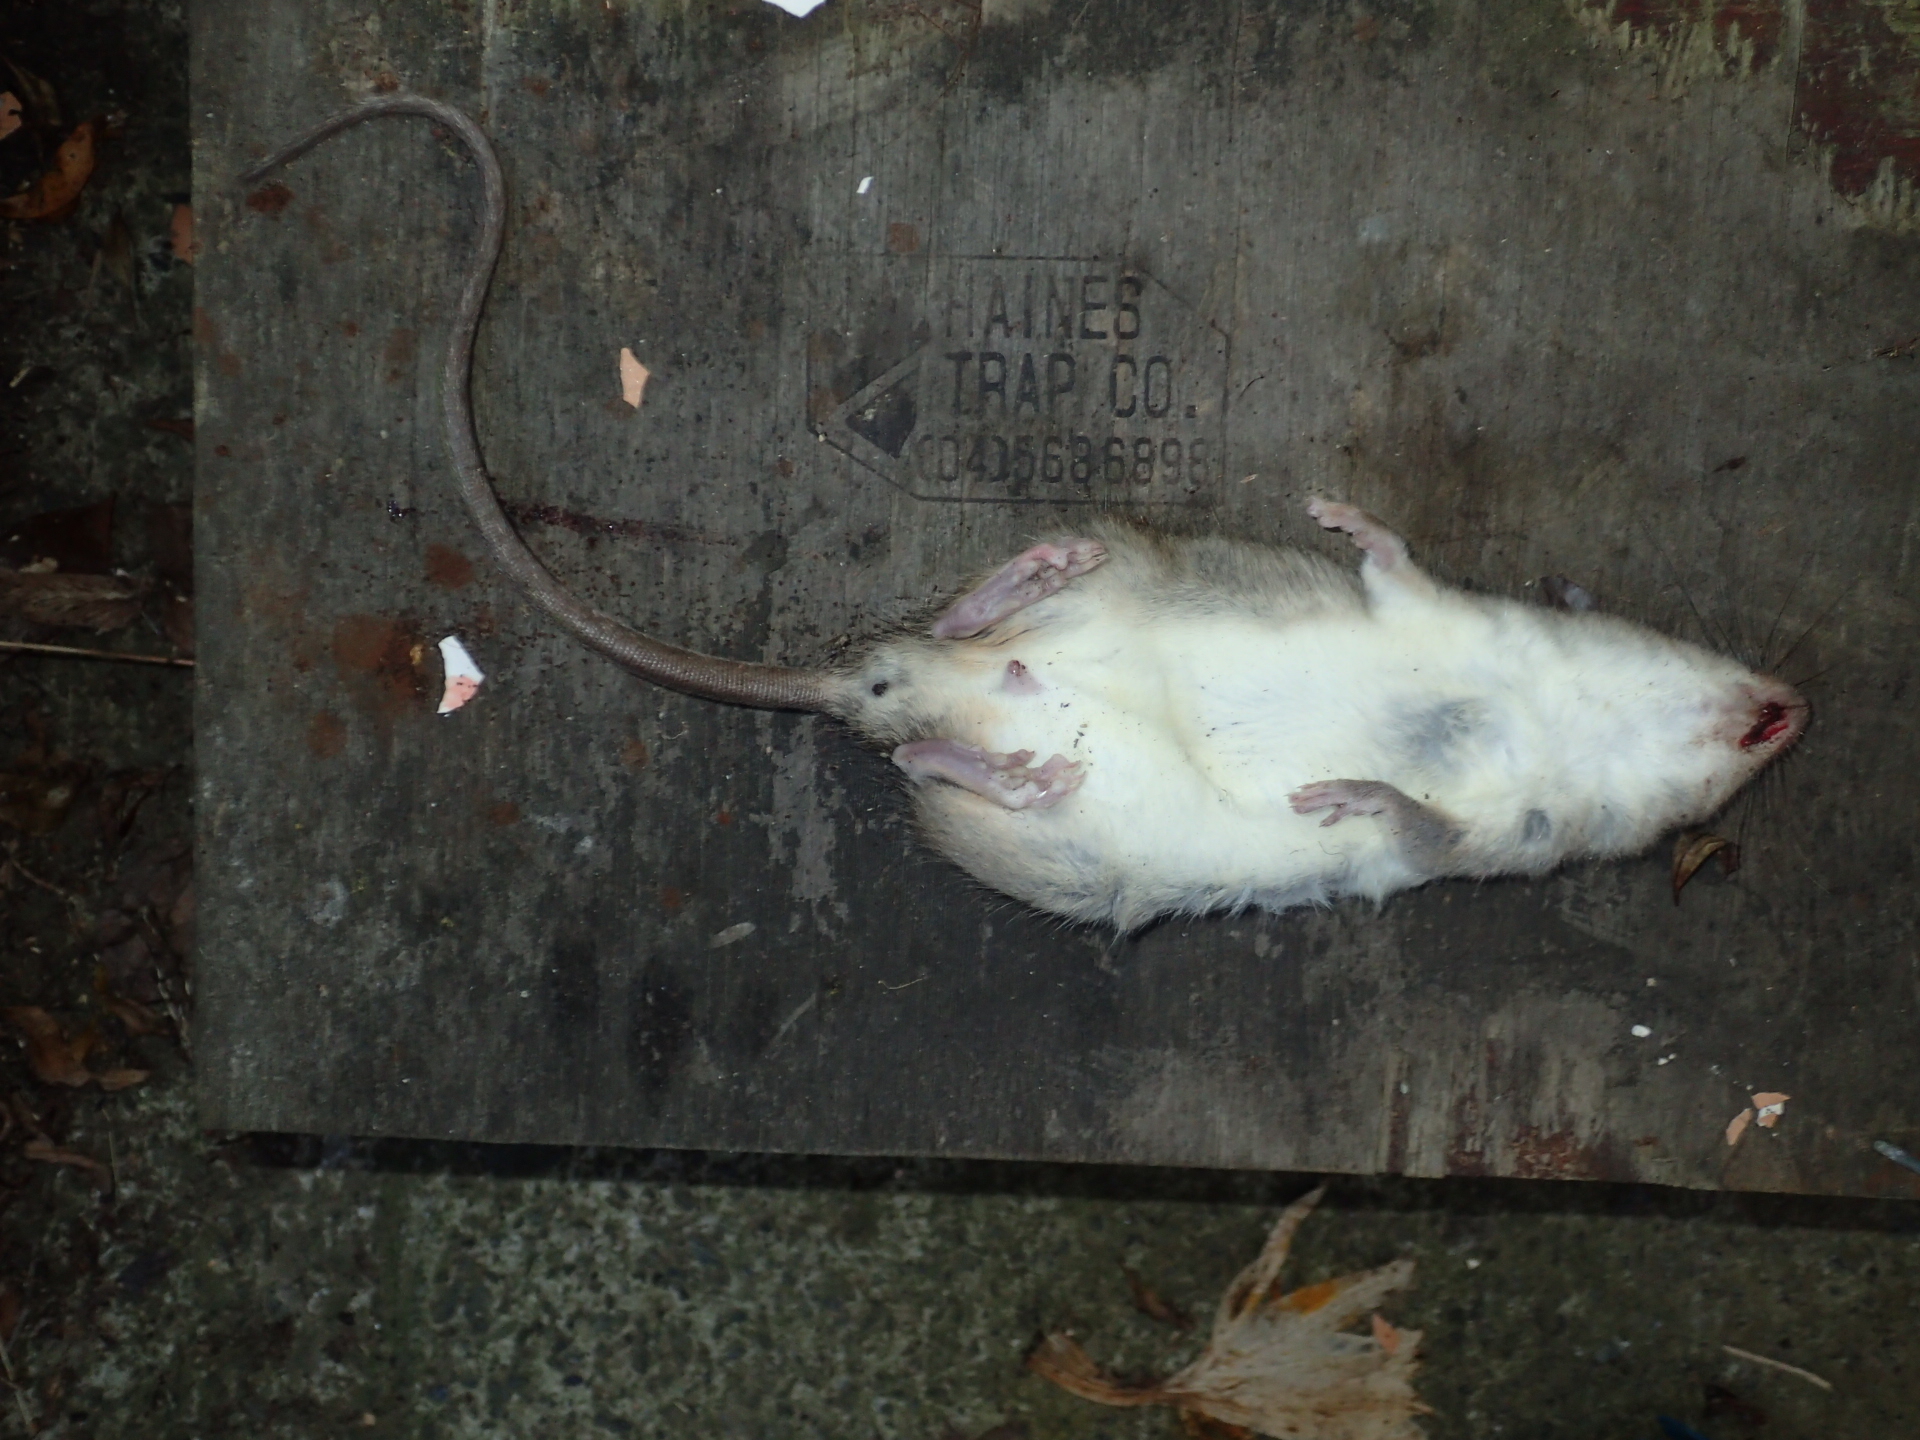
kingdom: Animalia
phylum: Chordata
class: Mammalia
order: Rodentia
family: Muridae
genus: Rattus
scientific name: Rattus rattus
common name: Black rat
